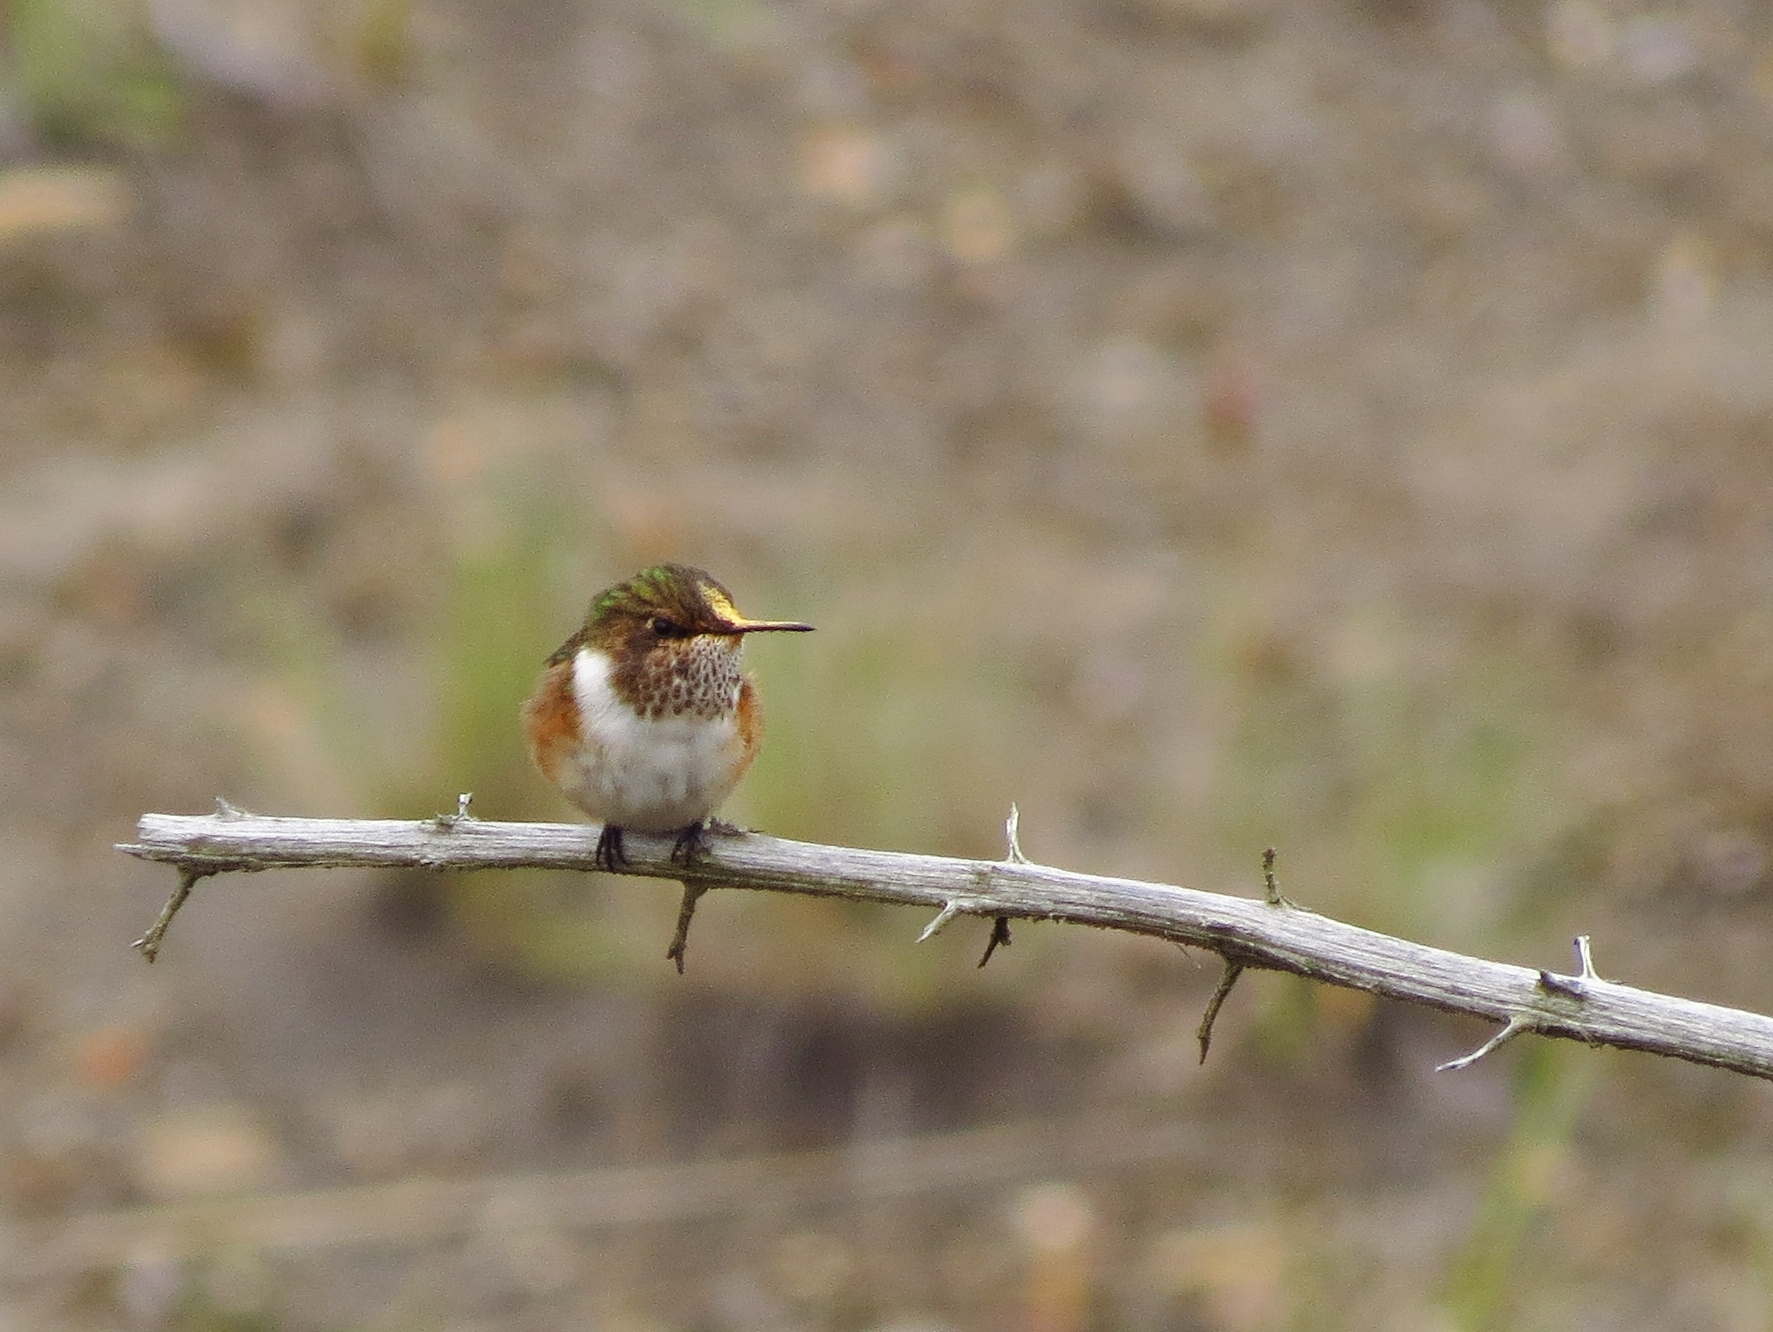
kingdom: Animalia
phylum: Chordata
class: Aves
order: Apodiformes
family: Trochilidae
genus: Selasphorus
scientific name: Selasphorus flammula
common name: Volcano hummingbird
